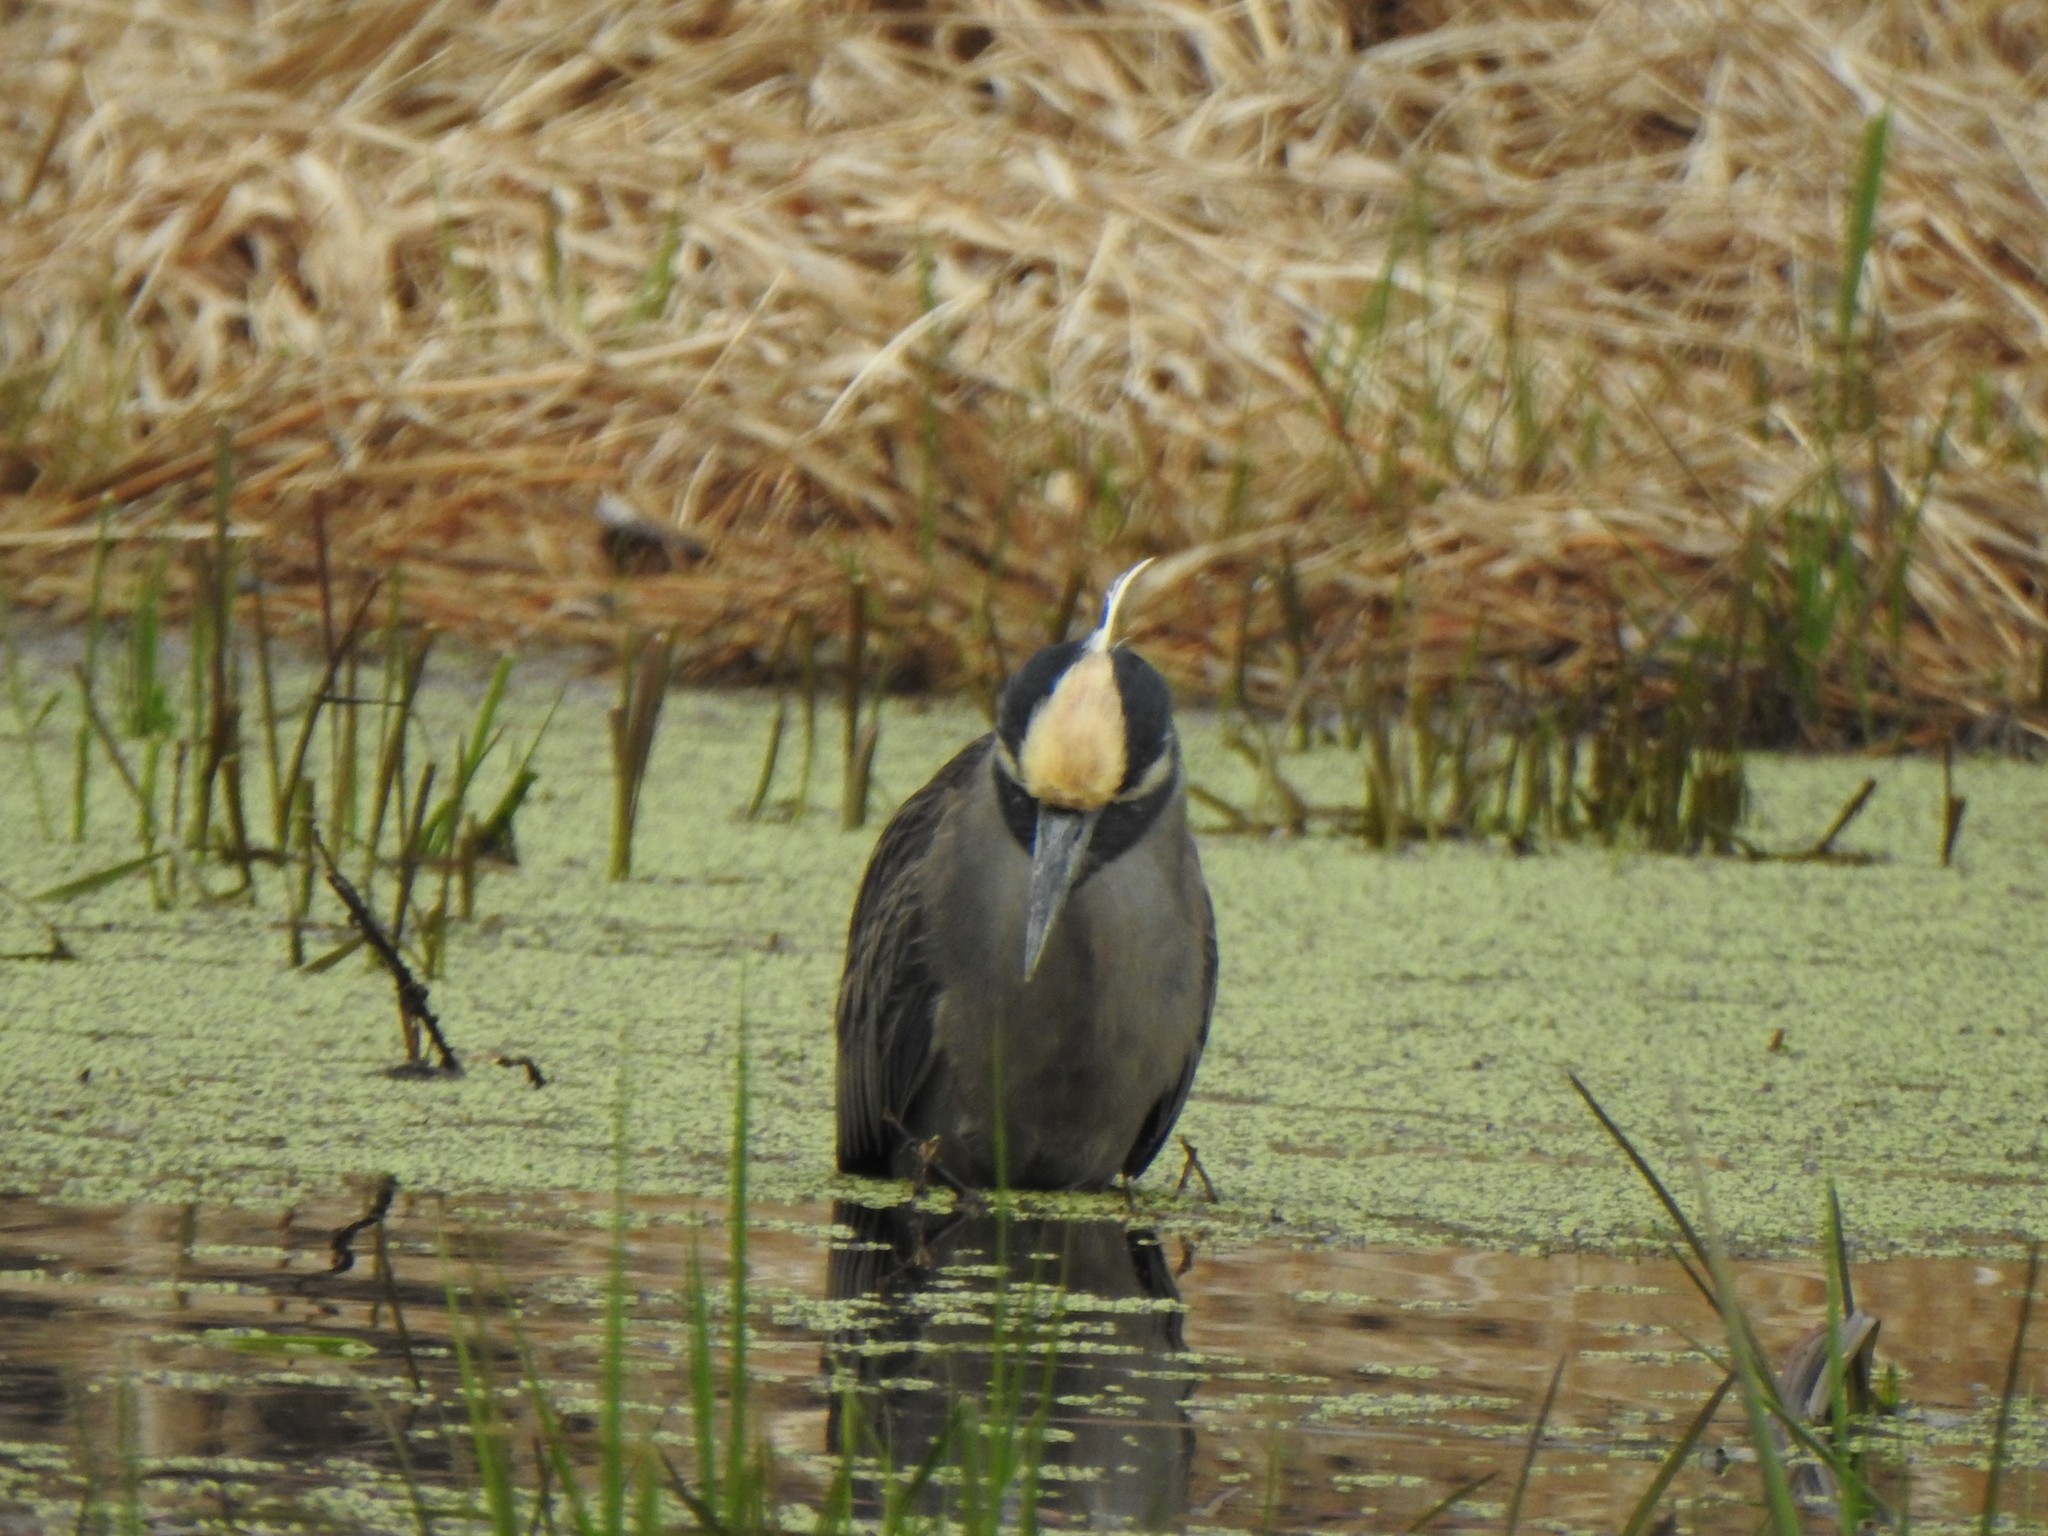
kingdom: Animalia
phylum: Chordata
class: Aves
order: Pelecaniformes
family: Ardeidae
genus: Nyctanassa
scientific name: Nyctanassa violacea
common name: Yellow-crowned night heron
